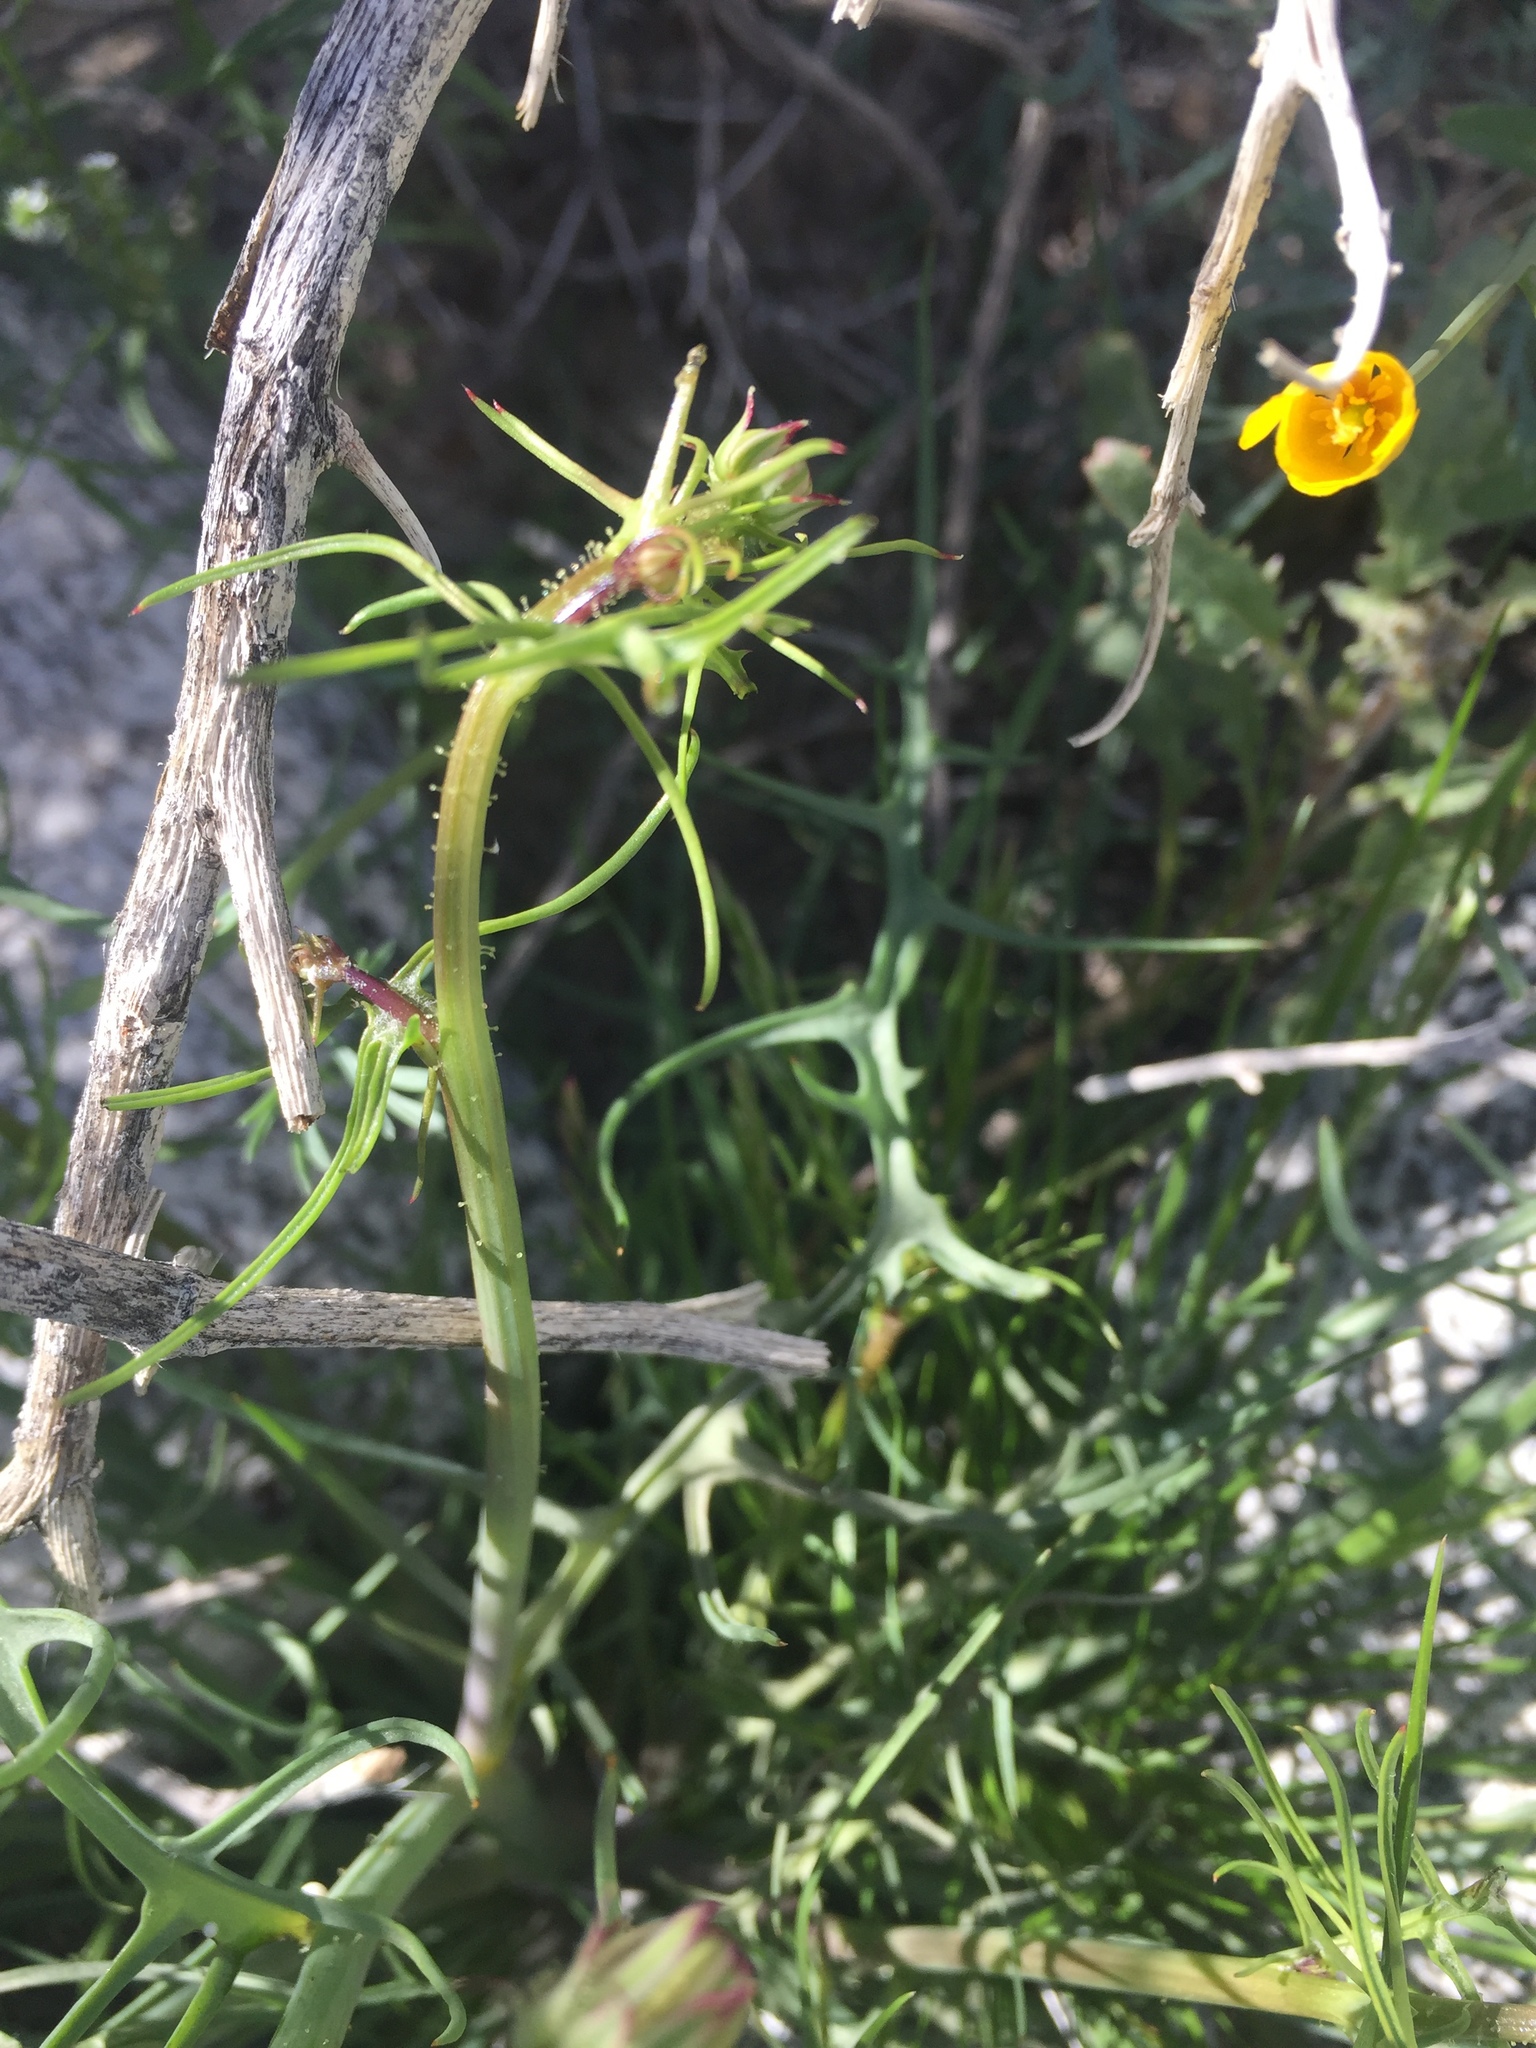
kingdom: Plantae
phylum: Tracheophyta
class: Magnoliopsida
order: Asterales
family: Asteraceae
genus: Calycoseris
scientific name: Calycoseris wrightii
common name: White tackstem
